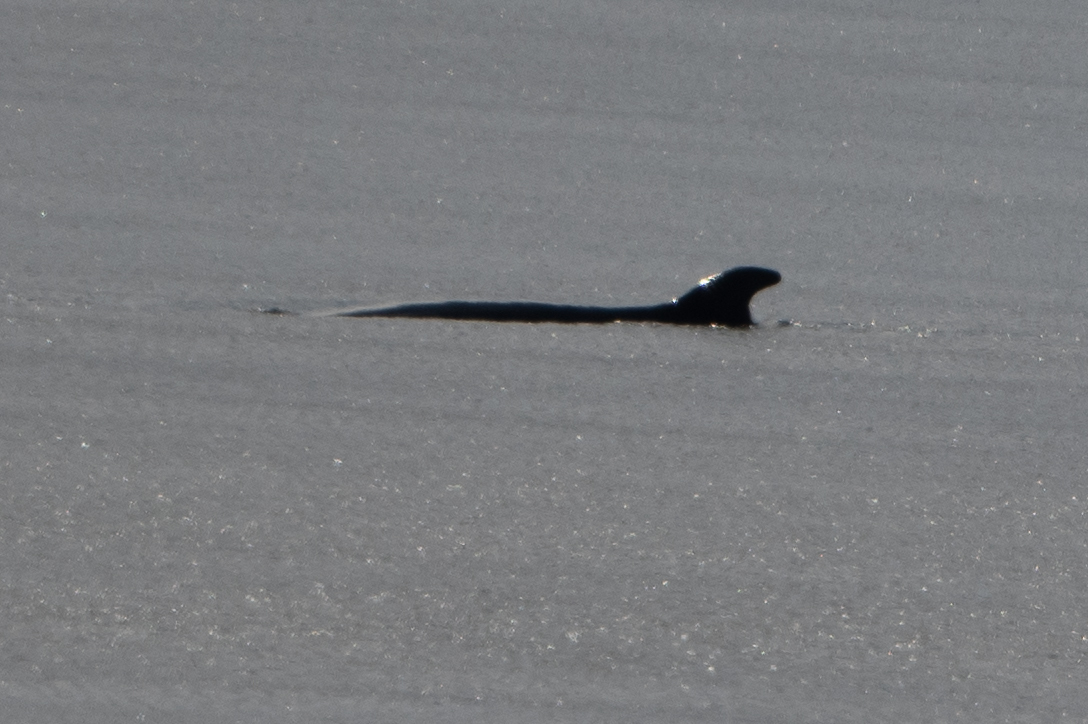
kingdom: Animalia
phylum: Chordata
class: Mammalia
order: Cetacea
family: Balaenopteridae
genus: Balaenoptera
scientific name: Balaenoptera bonaerensis
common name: Antarctic minke whale
